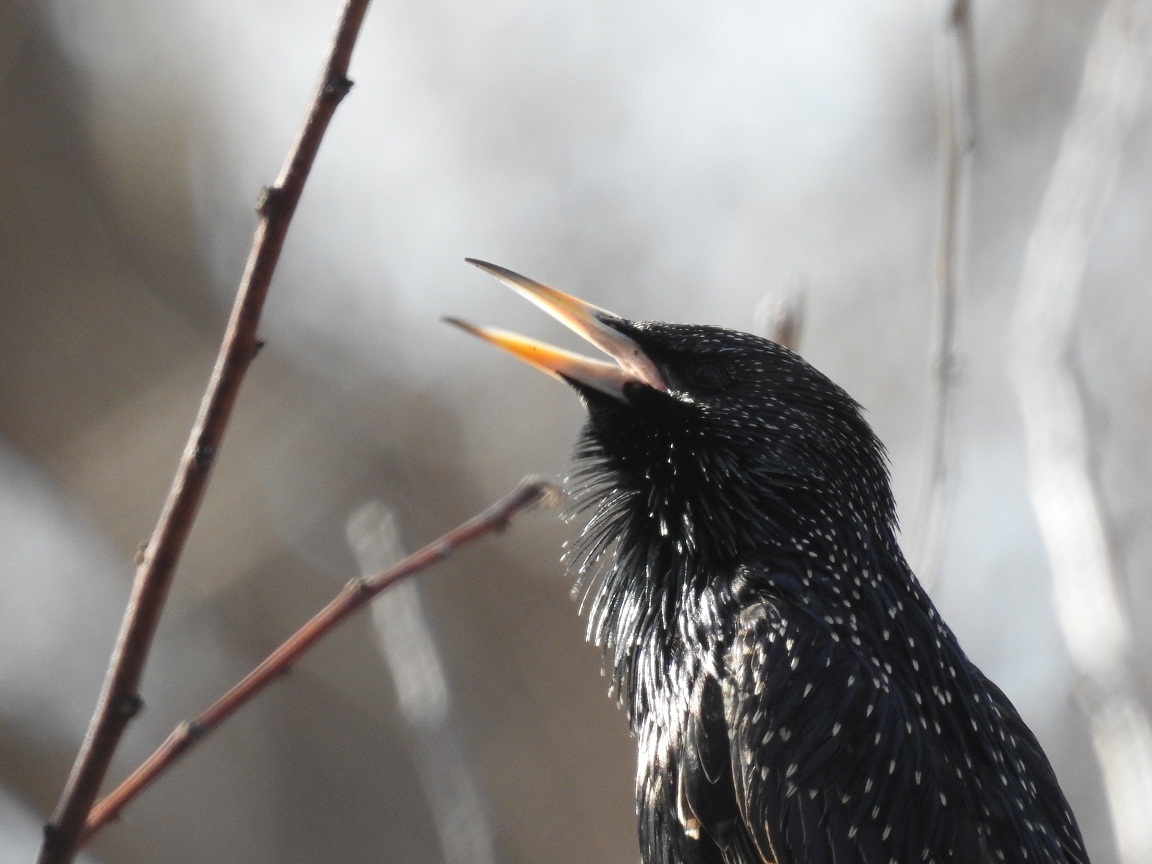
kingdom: Animalia
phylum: Chordata
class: Aves
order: Passeriformes
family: Sturnidae
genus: Sturnus
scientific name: Sturnus vulgaris
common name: Common starling
